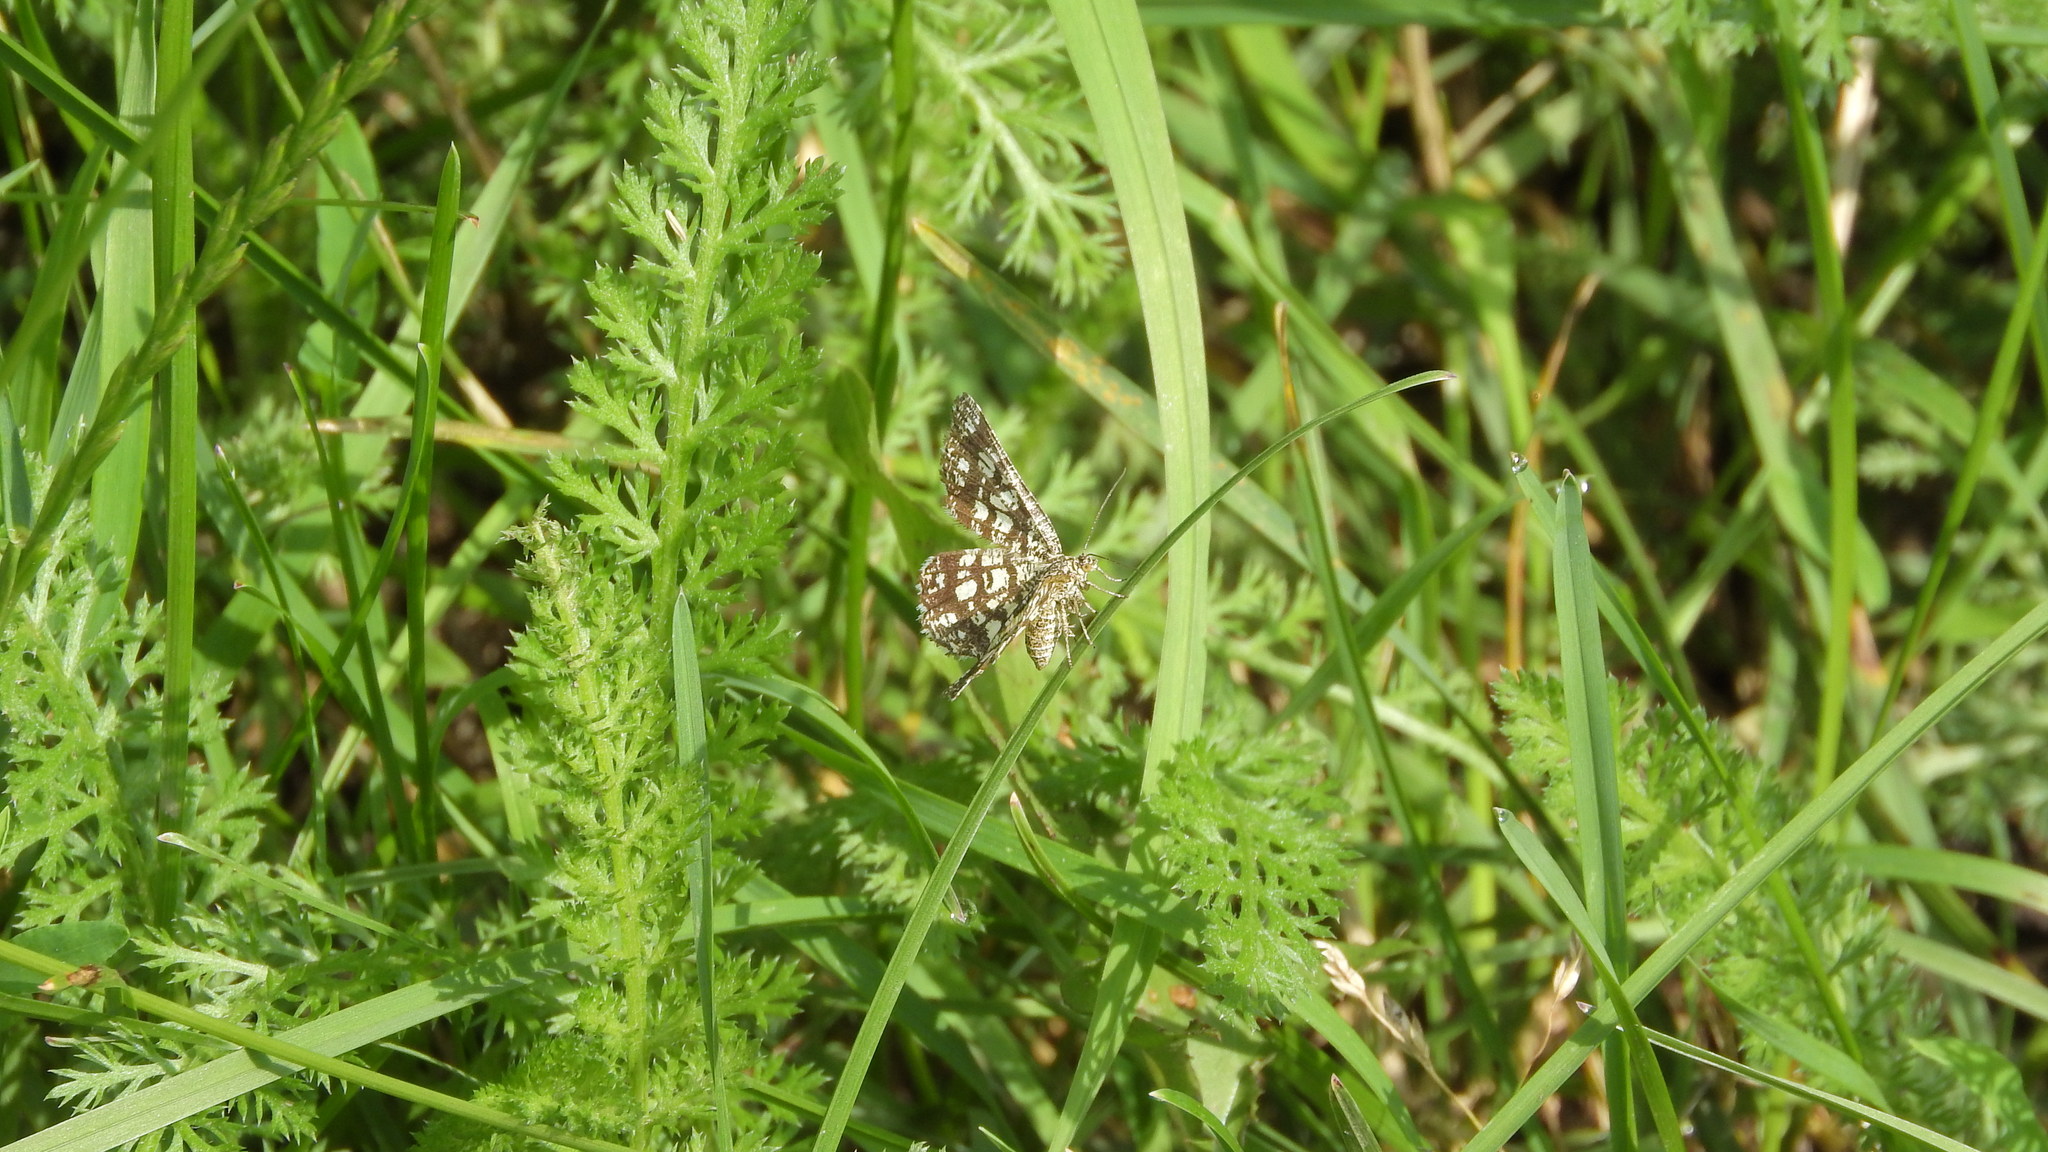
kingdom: Animalia
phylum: Arthropoda
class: Insecta
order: Lepidoptera
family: Geometridae
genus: Chiasmia
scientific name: Chiasmia clathrata
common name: Latticed heath
